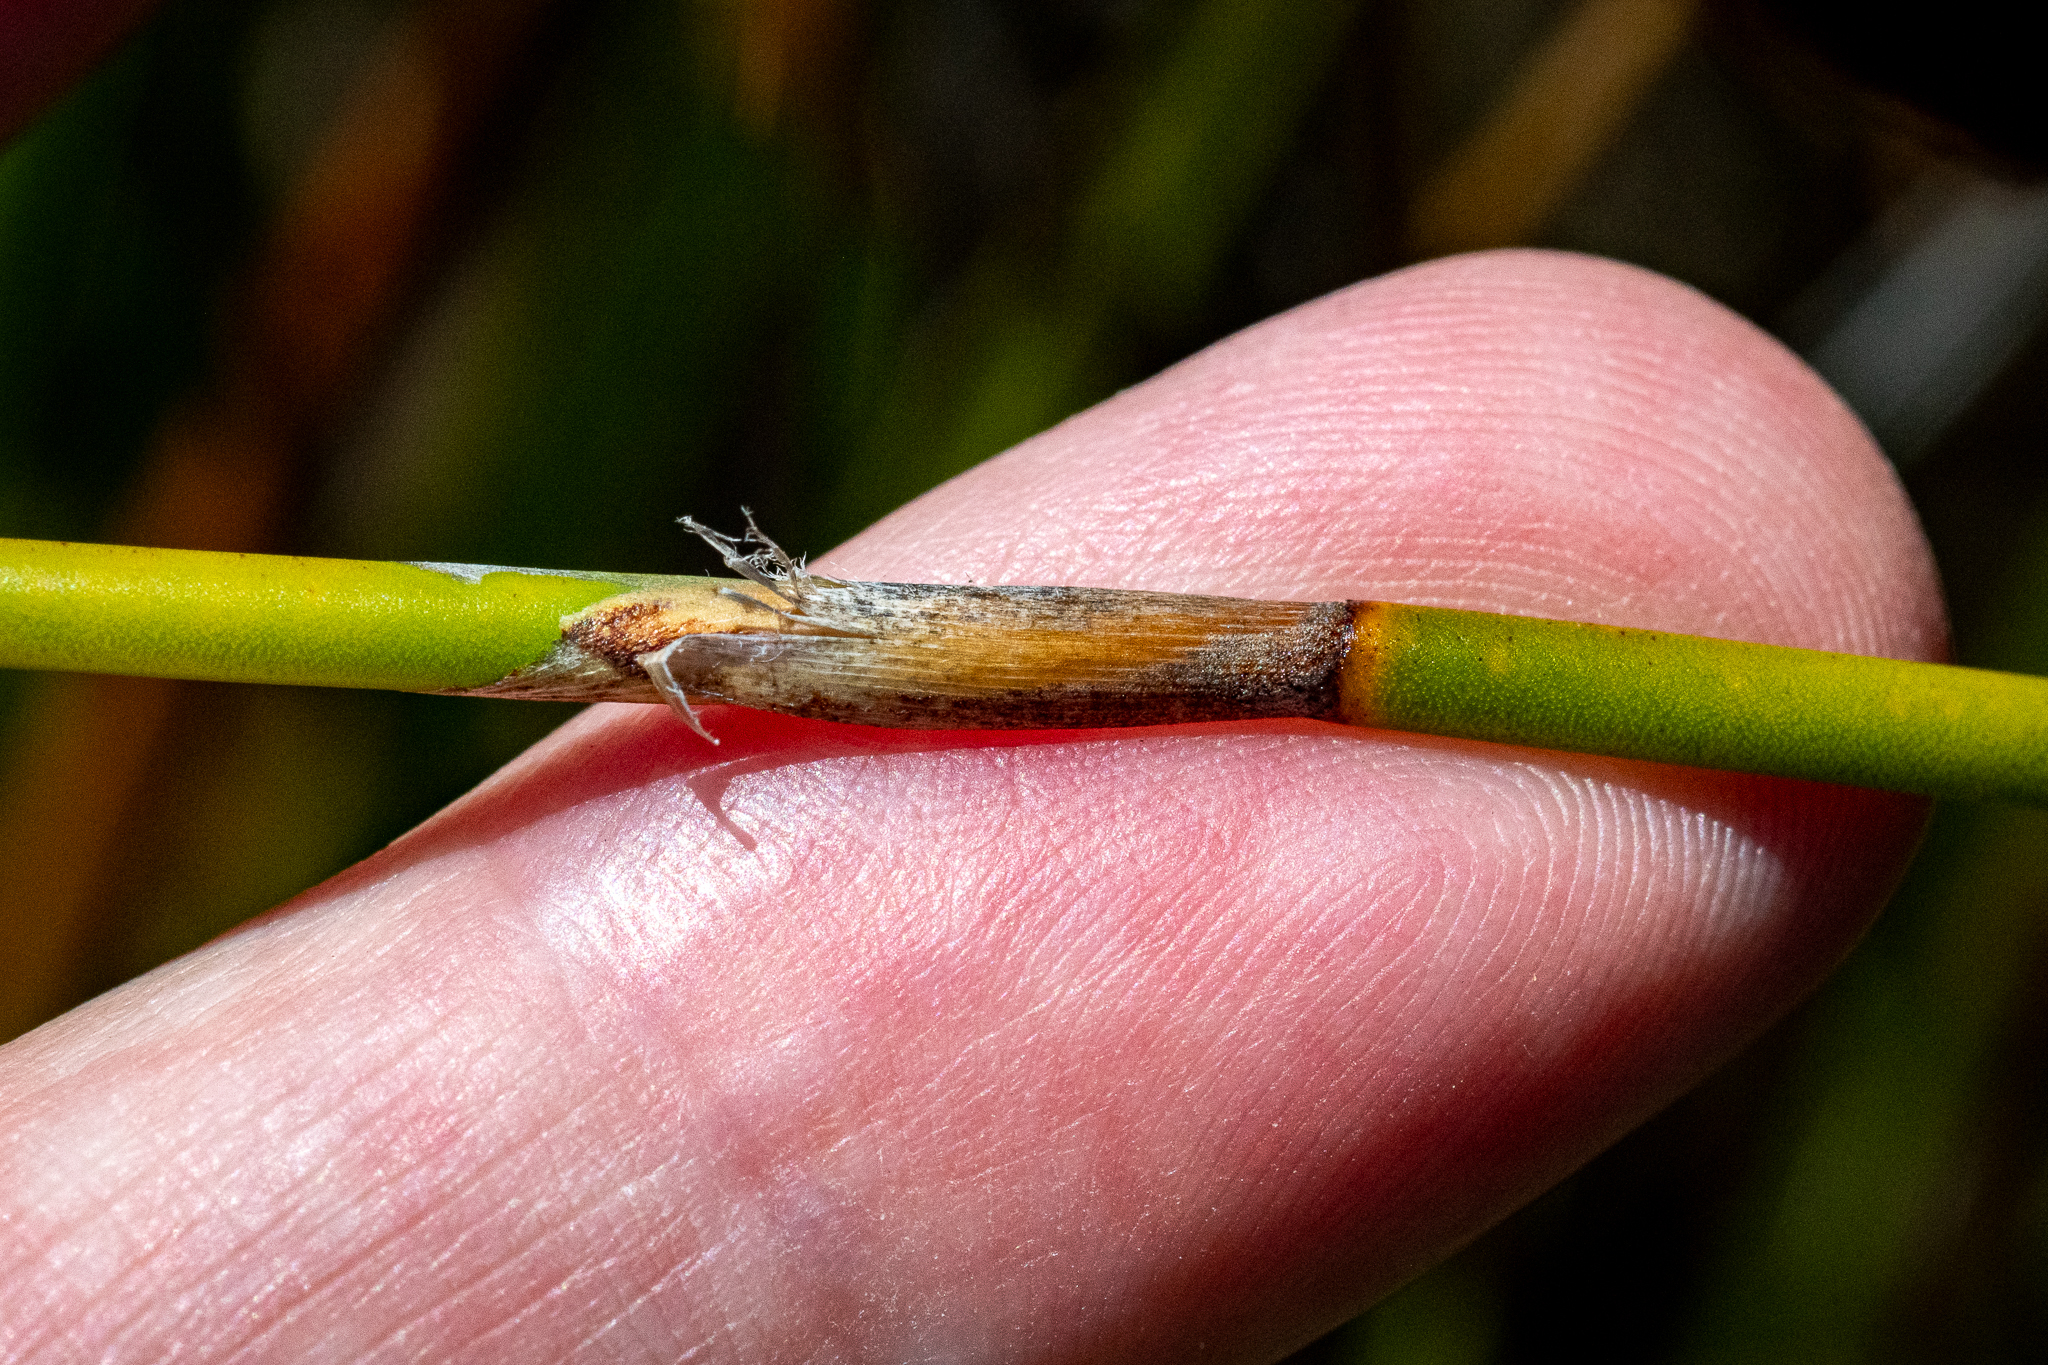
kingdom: Plantae
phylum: Tracheophyta
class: Liliopsida
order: Poales
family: Restionaceae
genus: Nevillea
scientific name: Nevillea obtusissimus
